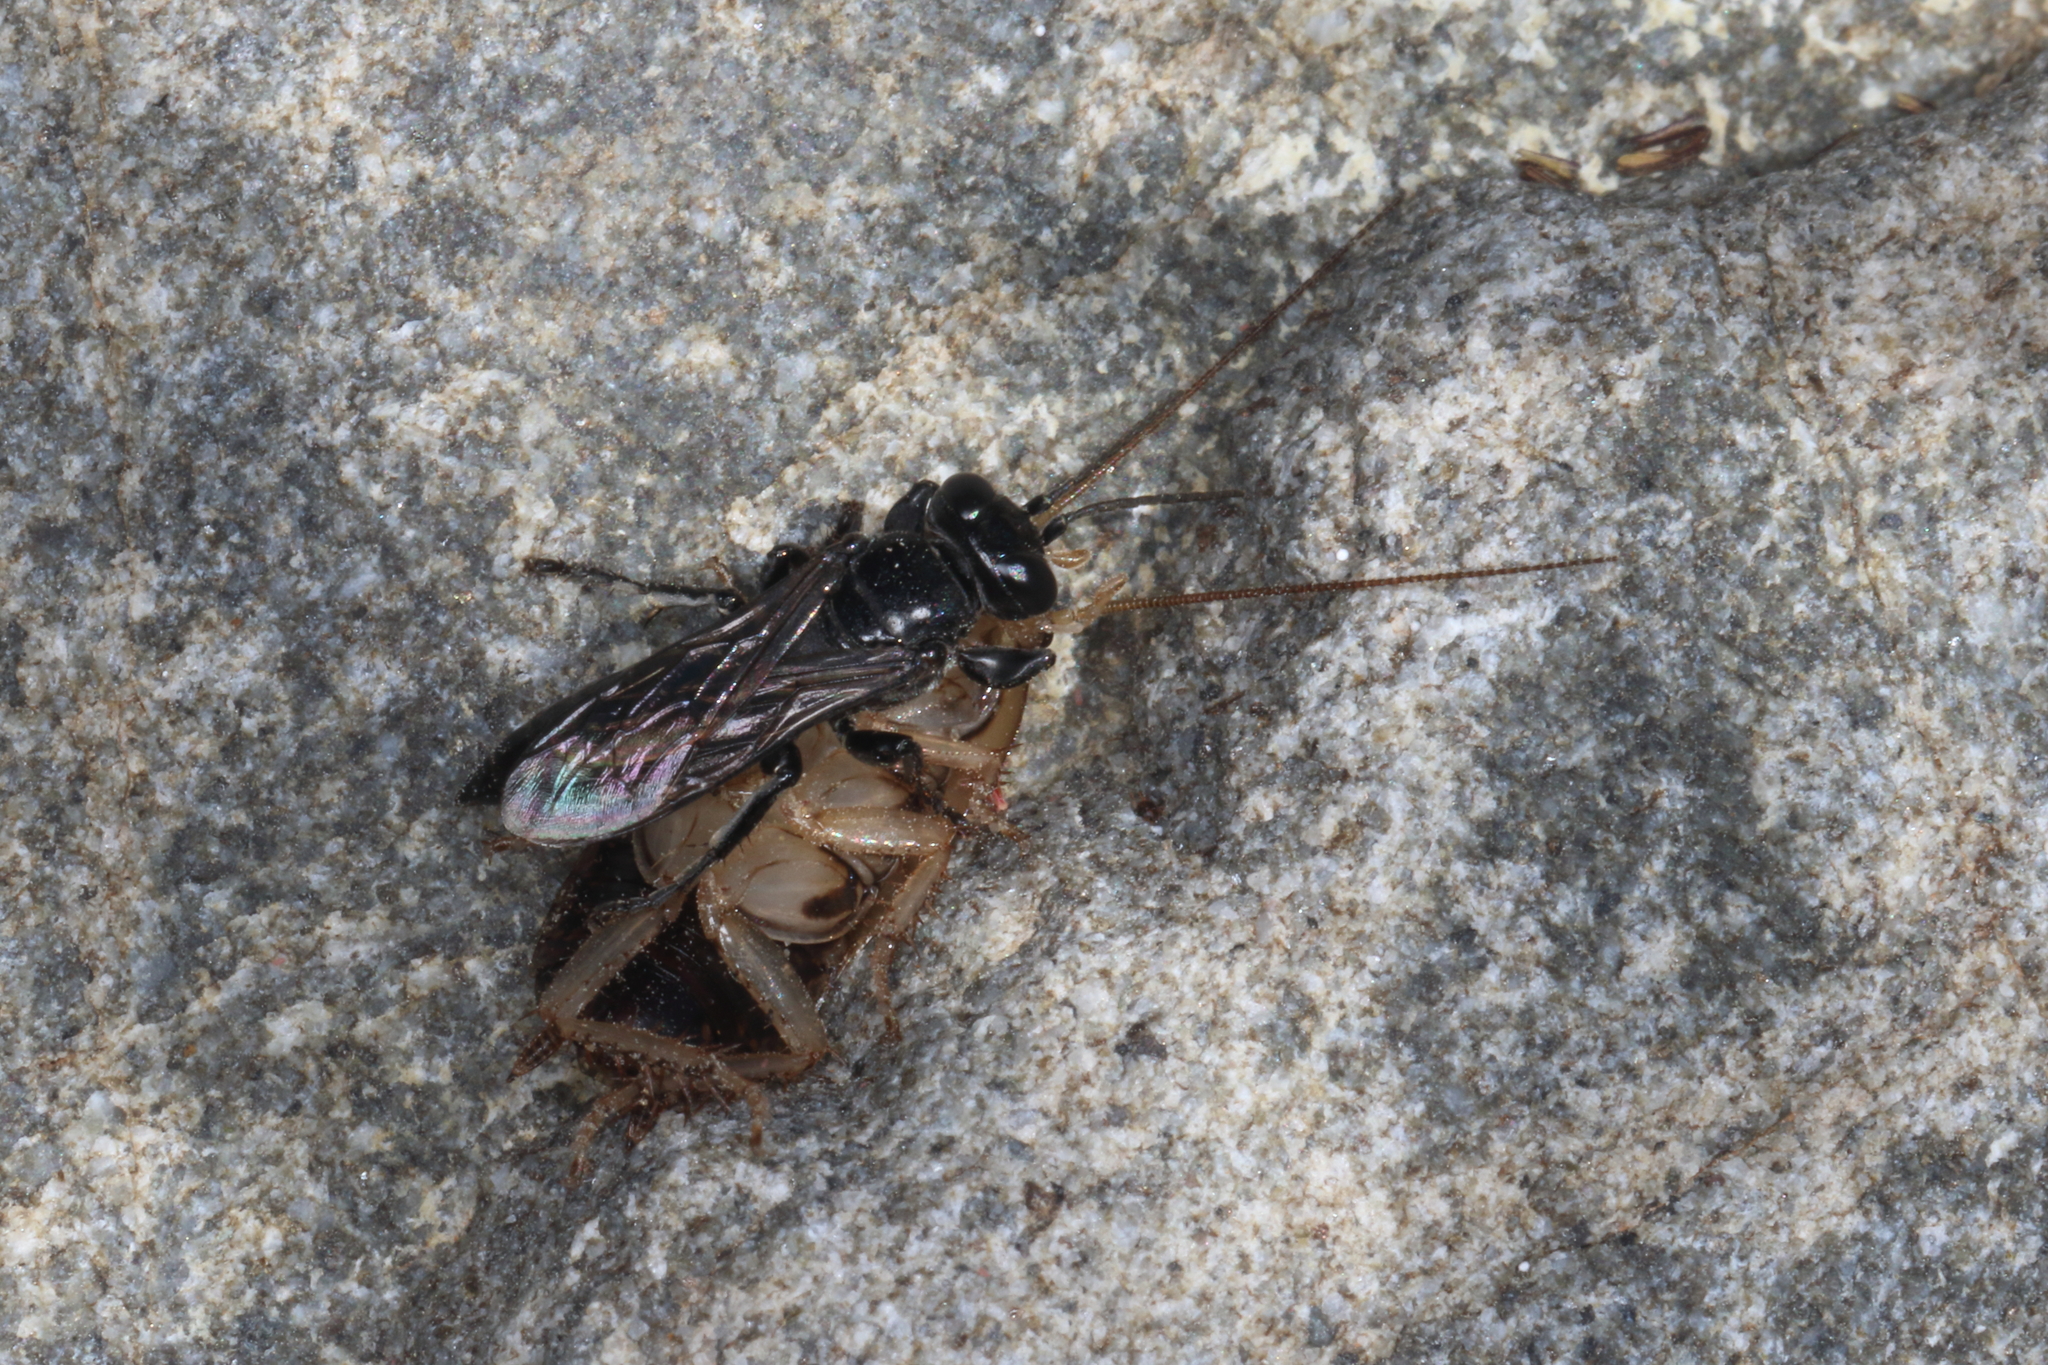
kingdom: Animalia
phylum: Arthropoda
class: Insecta
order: Hymenoptera
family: Crabronidae
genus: Tachysphex
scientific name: Tachysphex nigerrimus
